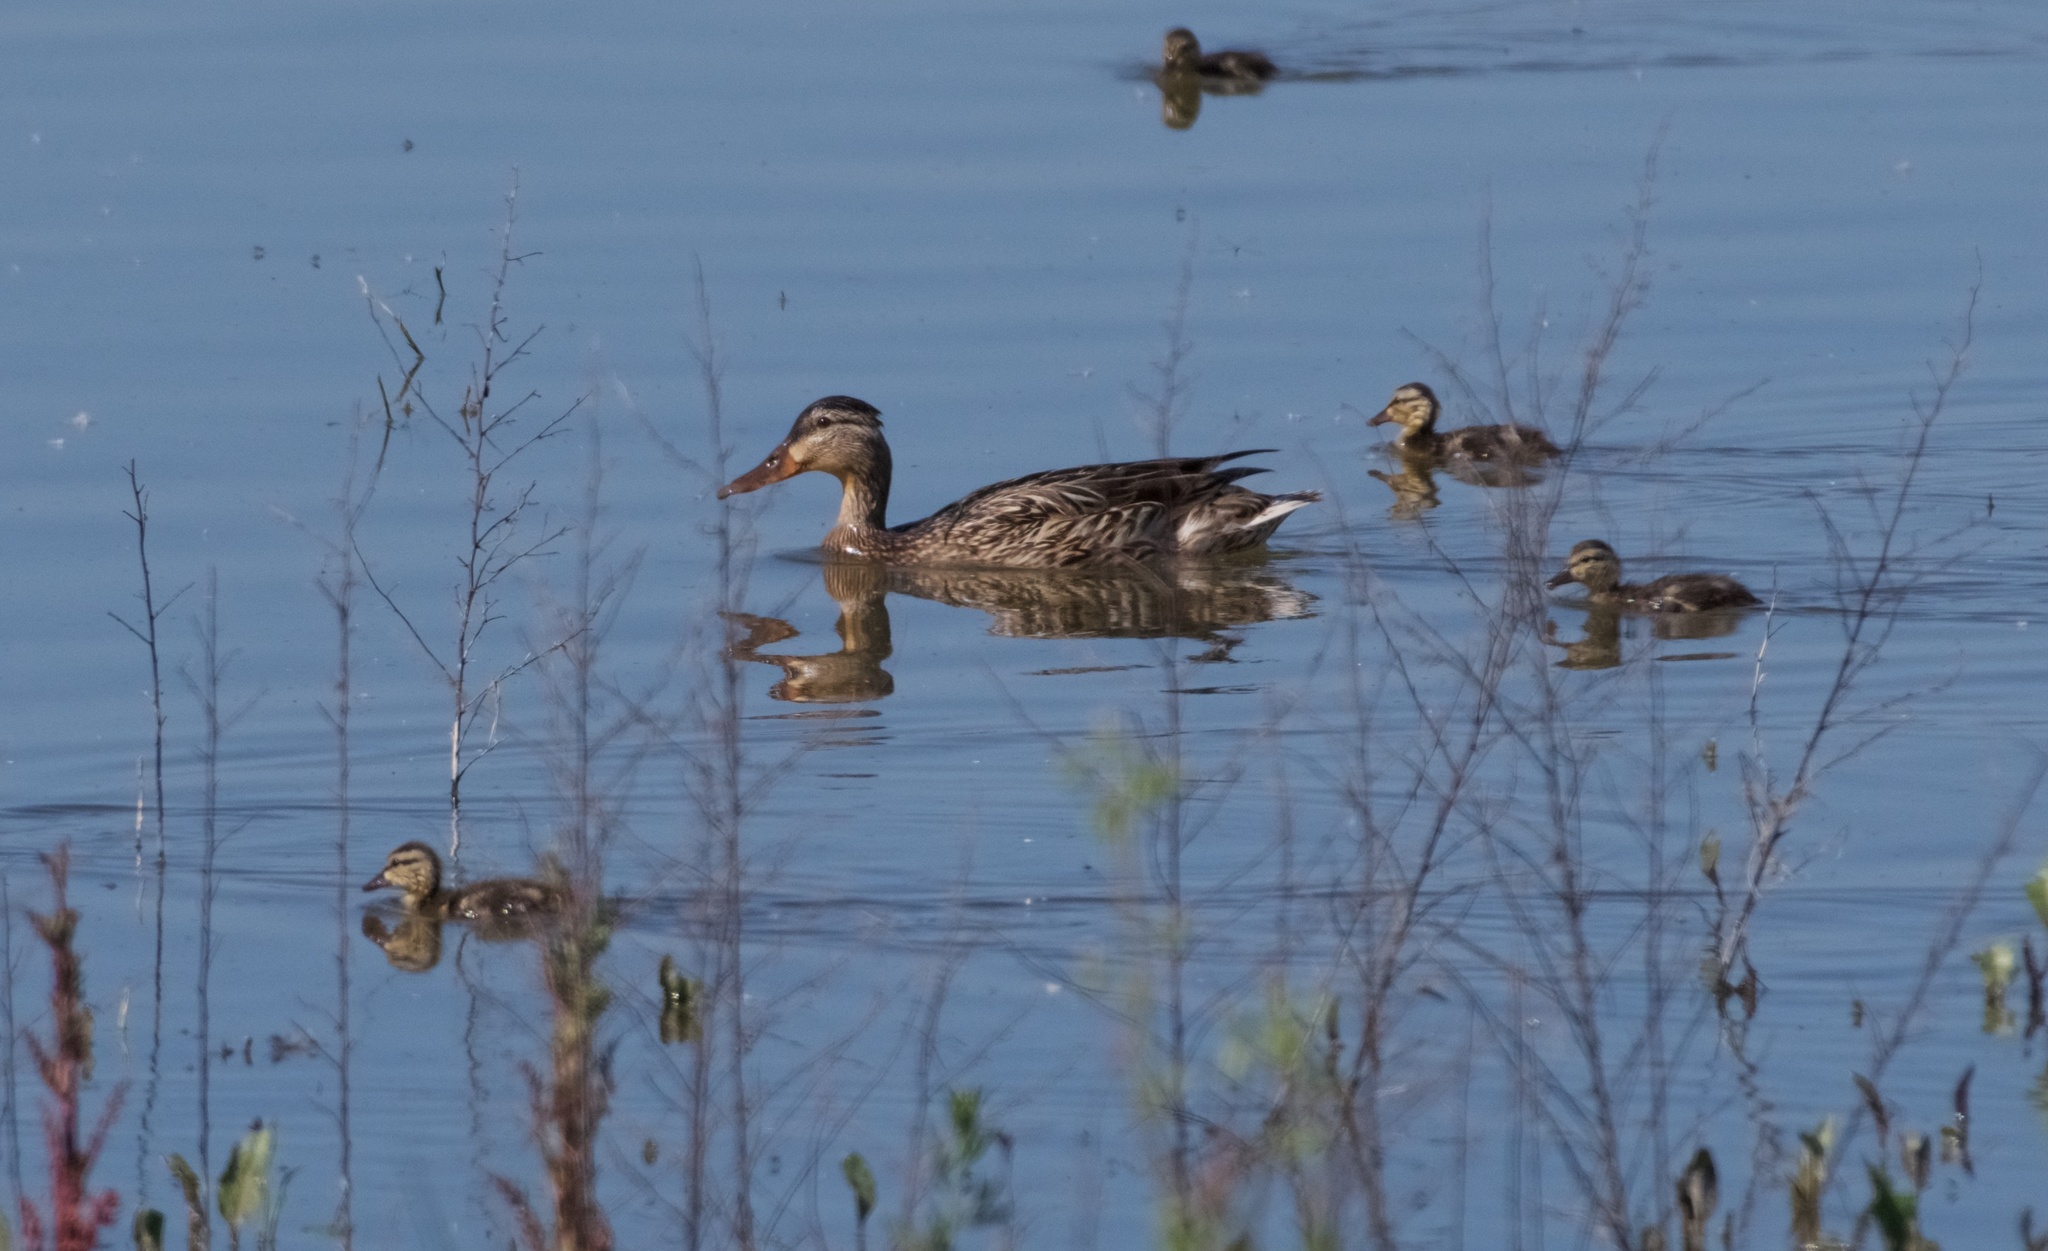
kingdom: Animalia
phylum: Chordata
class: Aves
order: Anseriformes
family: Anatidae
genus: Anas
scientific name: Anas platyrhynchos
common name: Mallard
